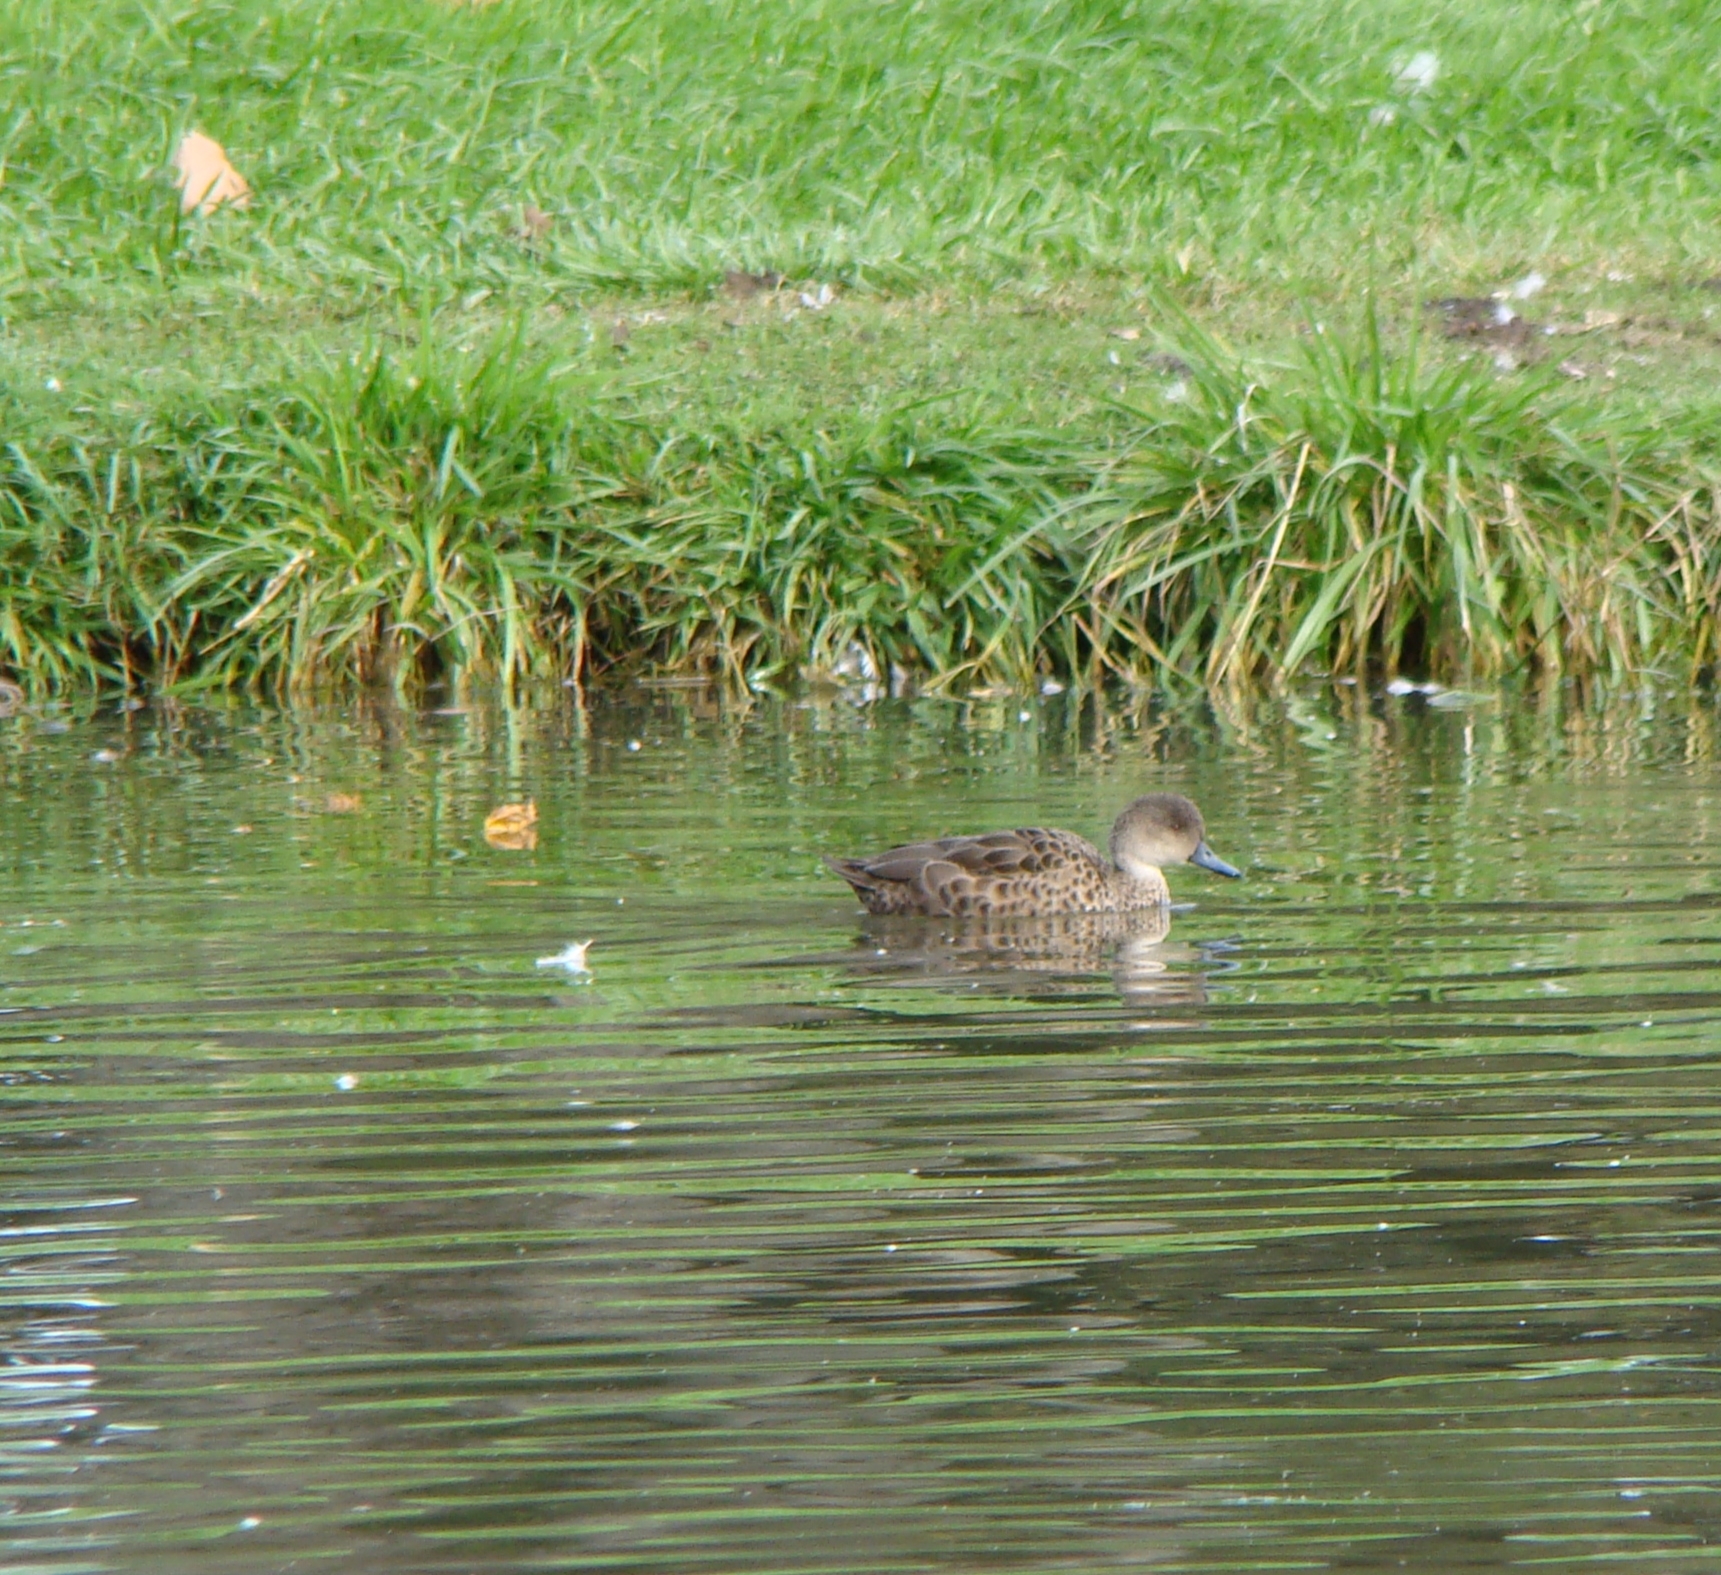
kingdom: Animalia
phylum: Chordata
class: Aves
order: Anseriformes
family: Anatidae
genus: Anas
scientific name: Anas gracilis
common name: Grey teal
